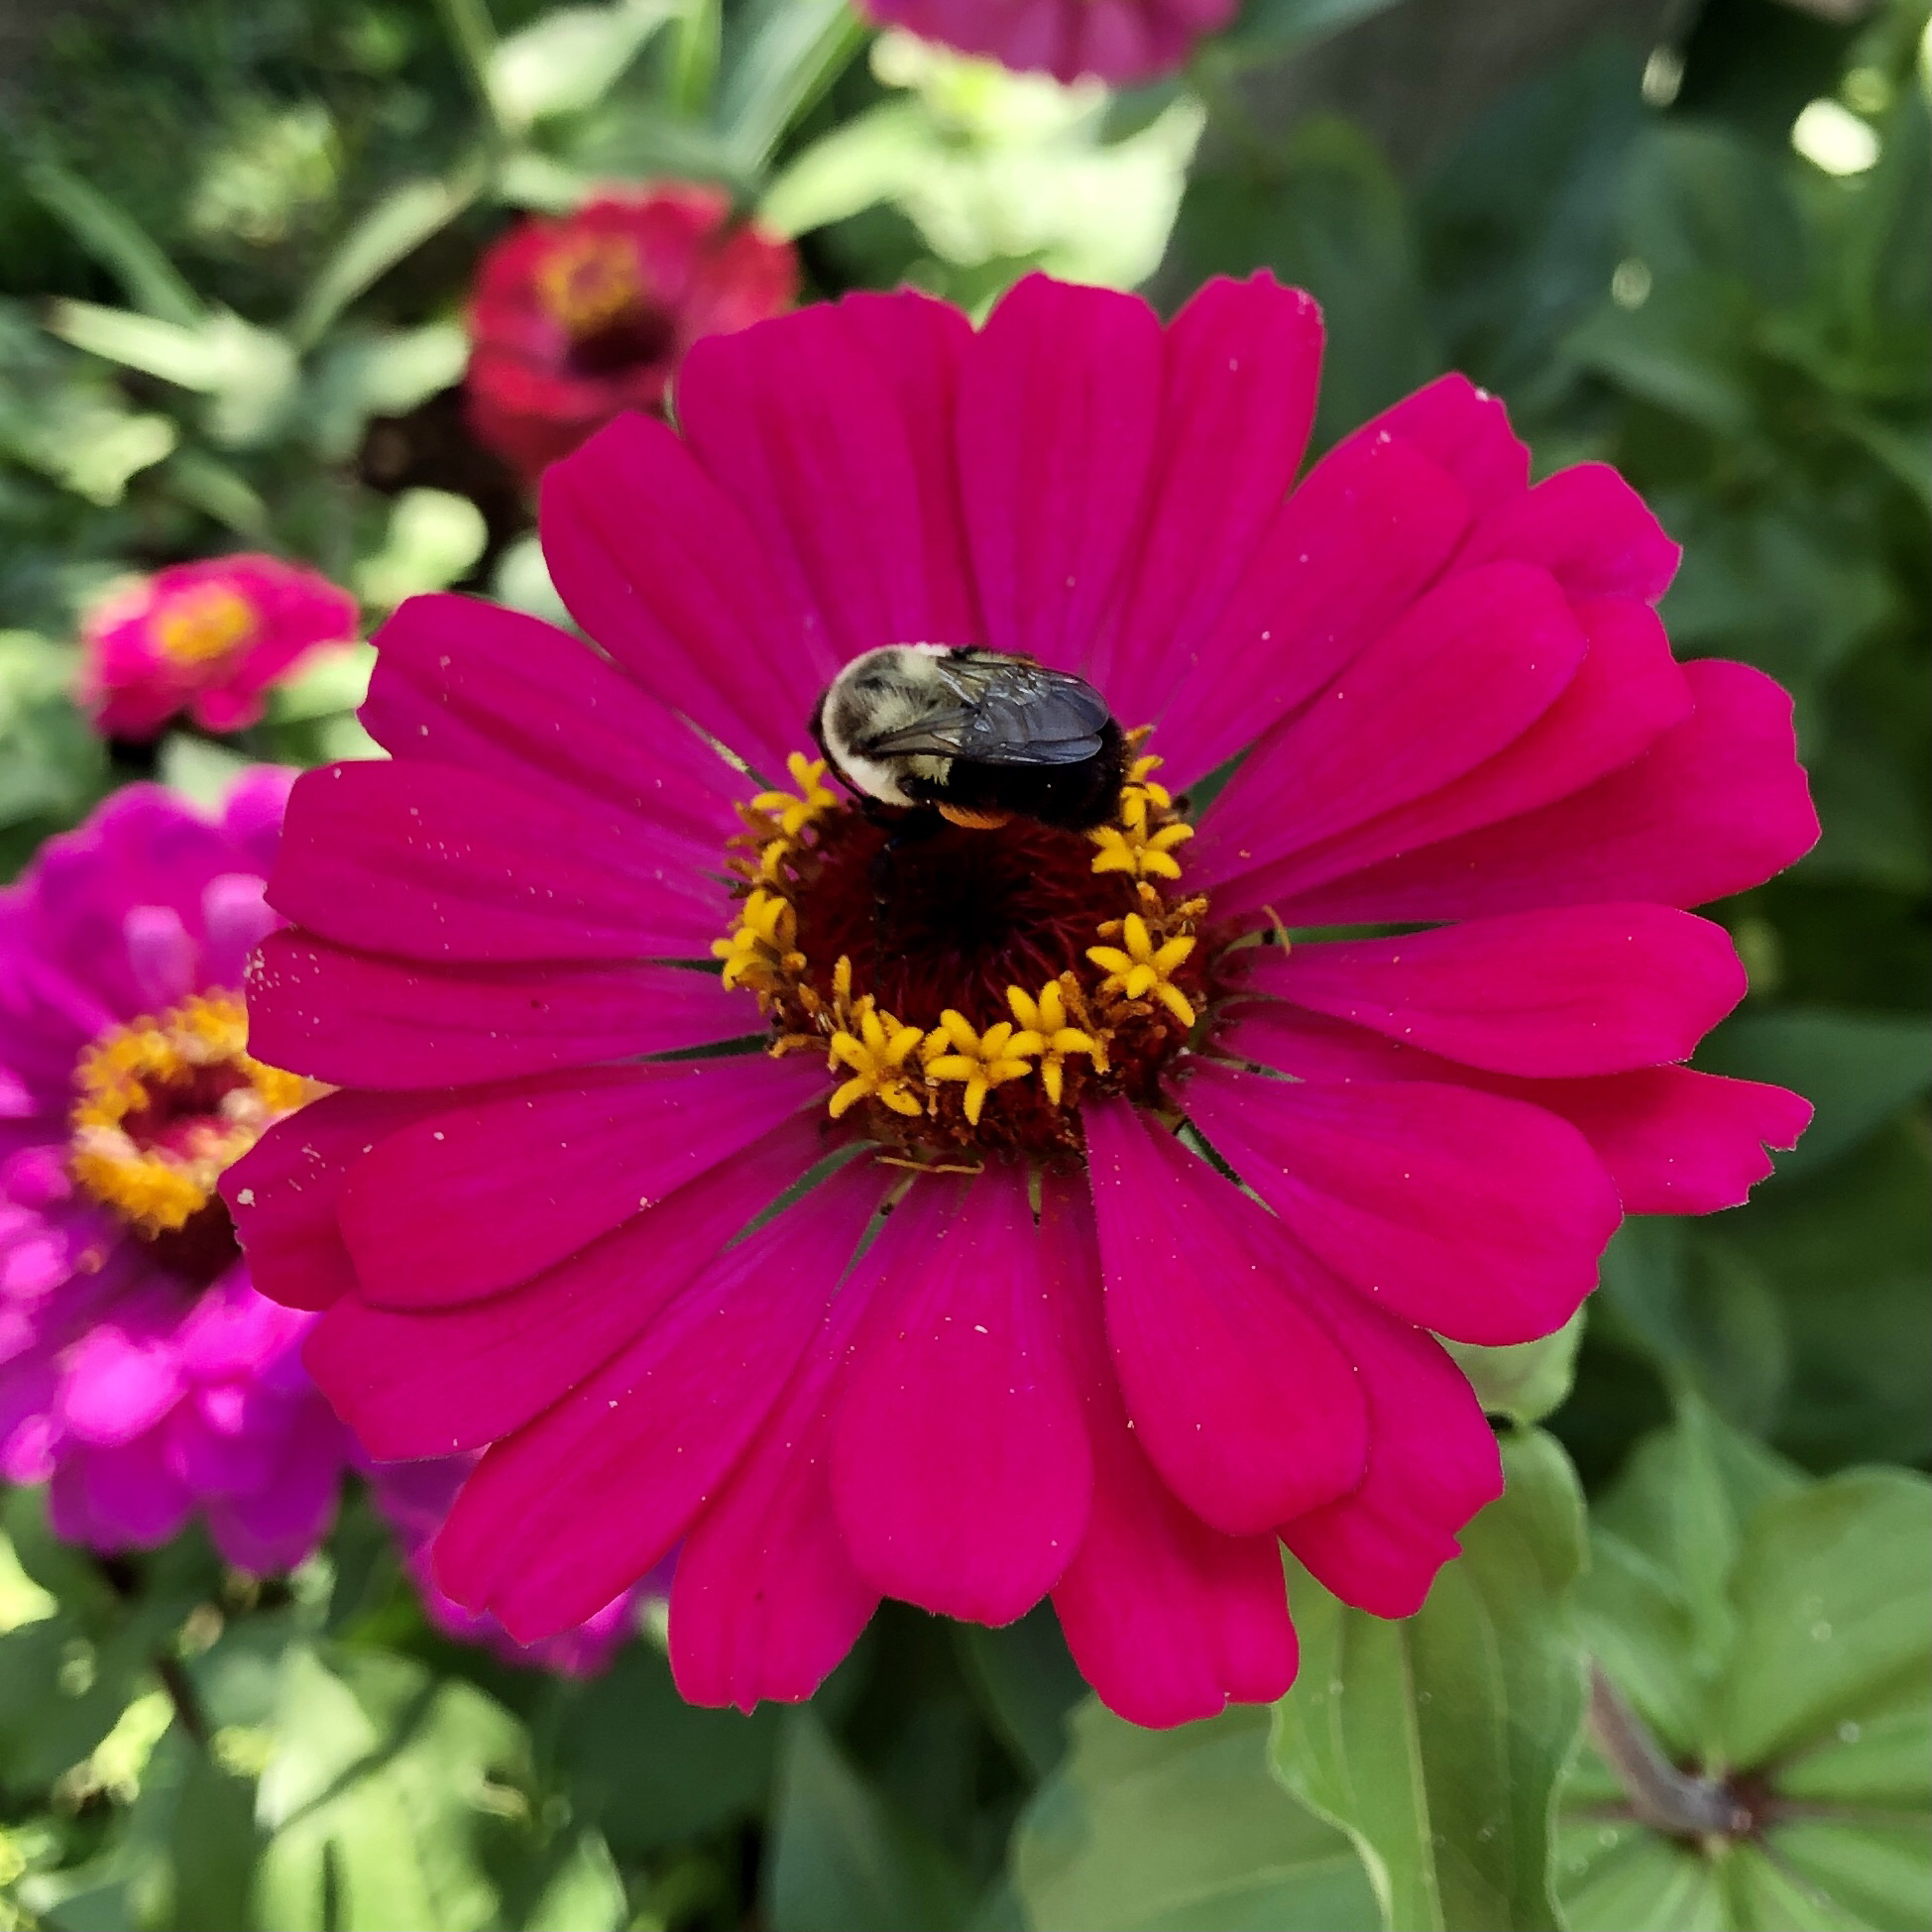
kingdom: Animalia
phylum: Arthropoda
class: Insecta
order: Hymenoptera
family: Apidae
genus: Bombus
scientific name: Bombus impatiens
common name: Common eastern bumble bee
